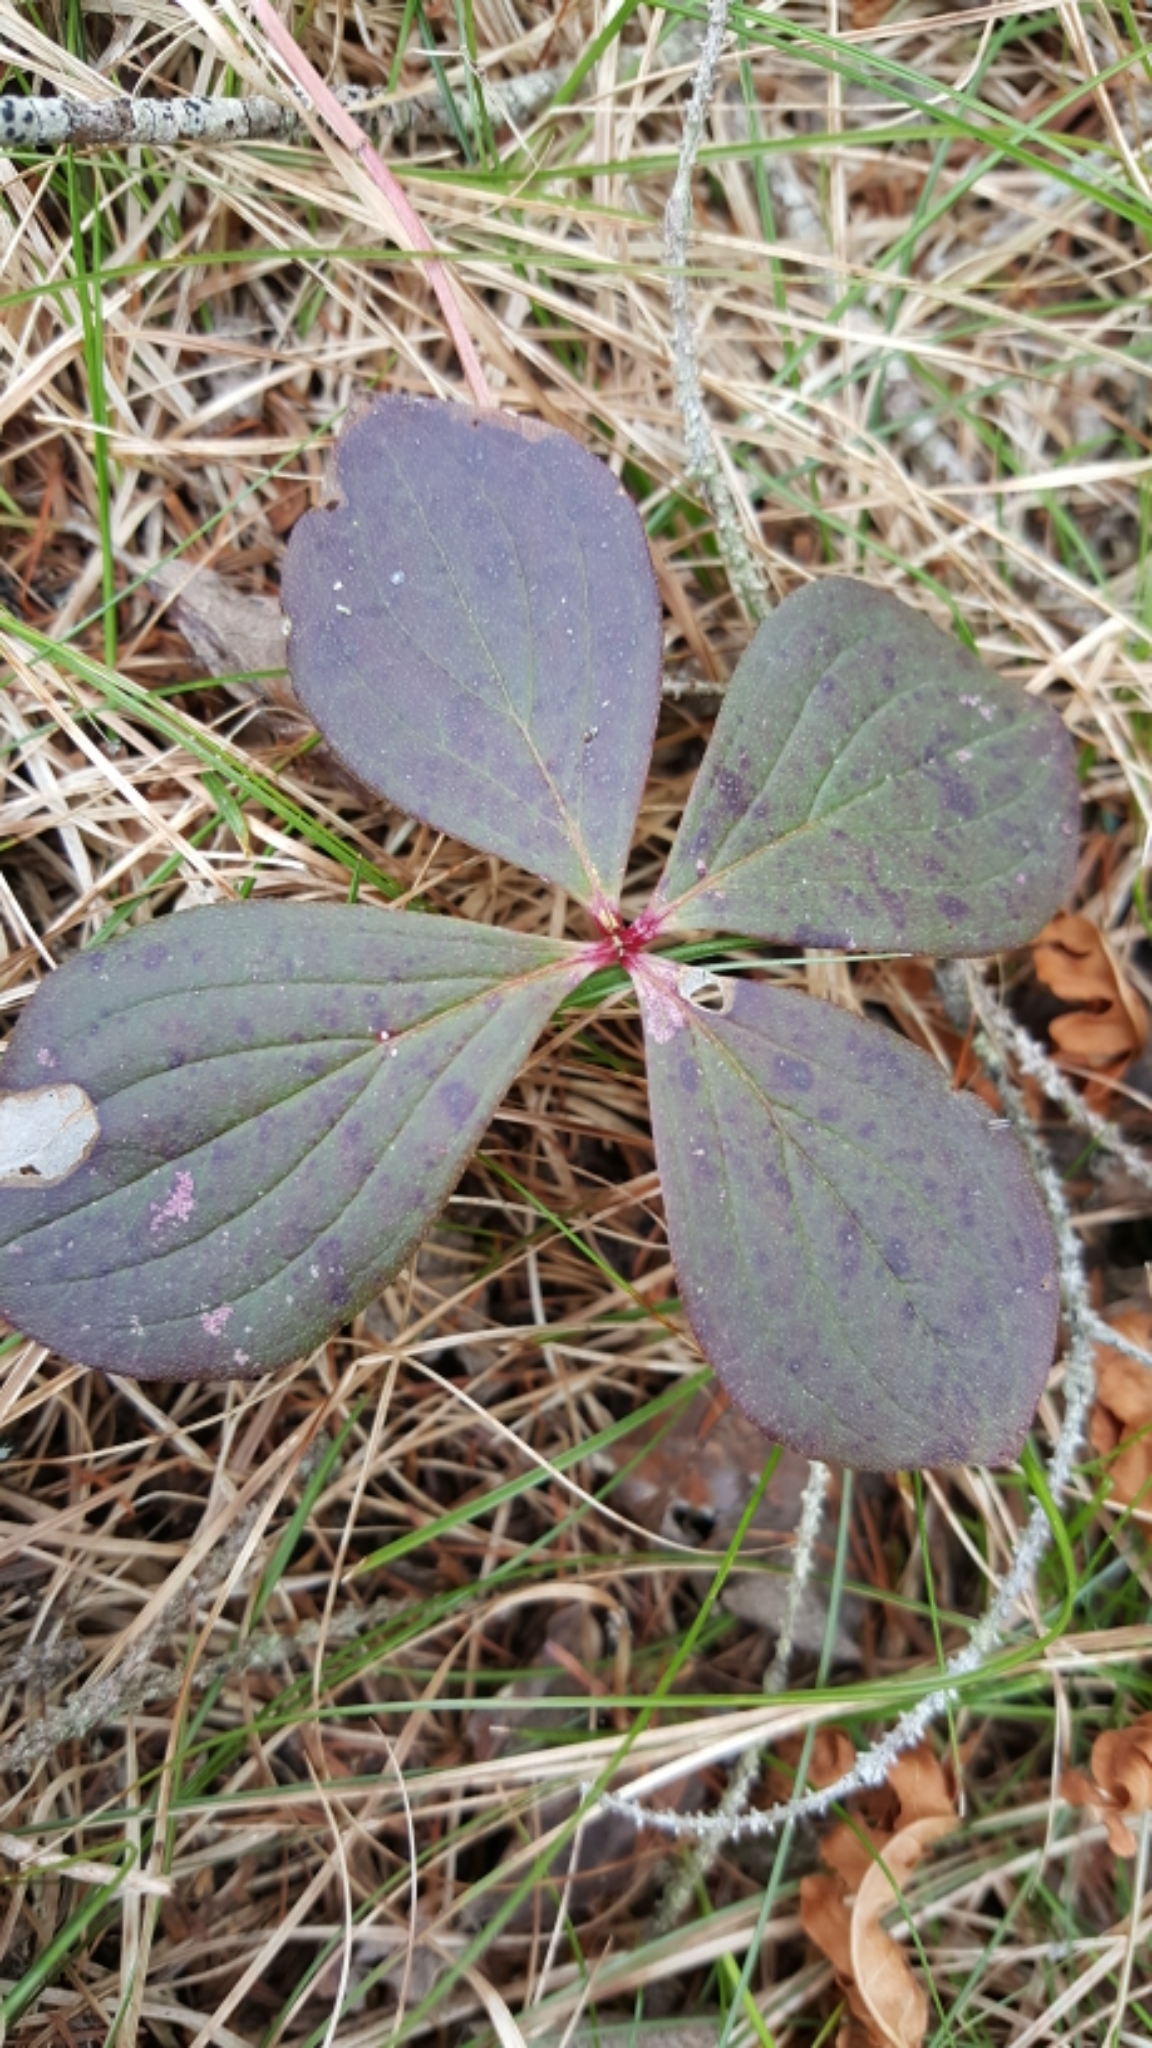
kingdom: Plantae
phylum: Tracheophyta
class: Magnoliopsida
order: Cornales
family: Cornaceae
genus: Cornus
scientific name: Cornus canadensis
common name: Creeping dogwood
